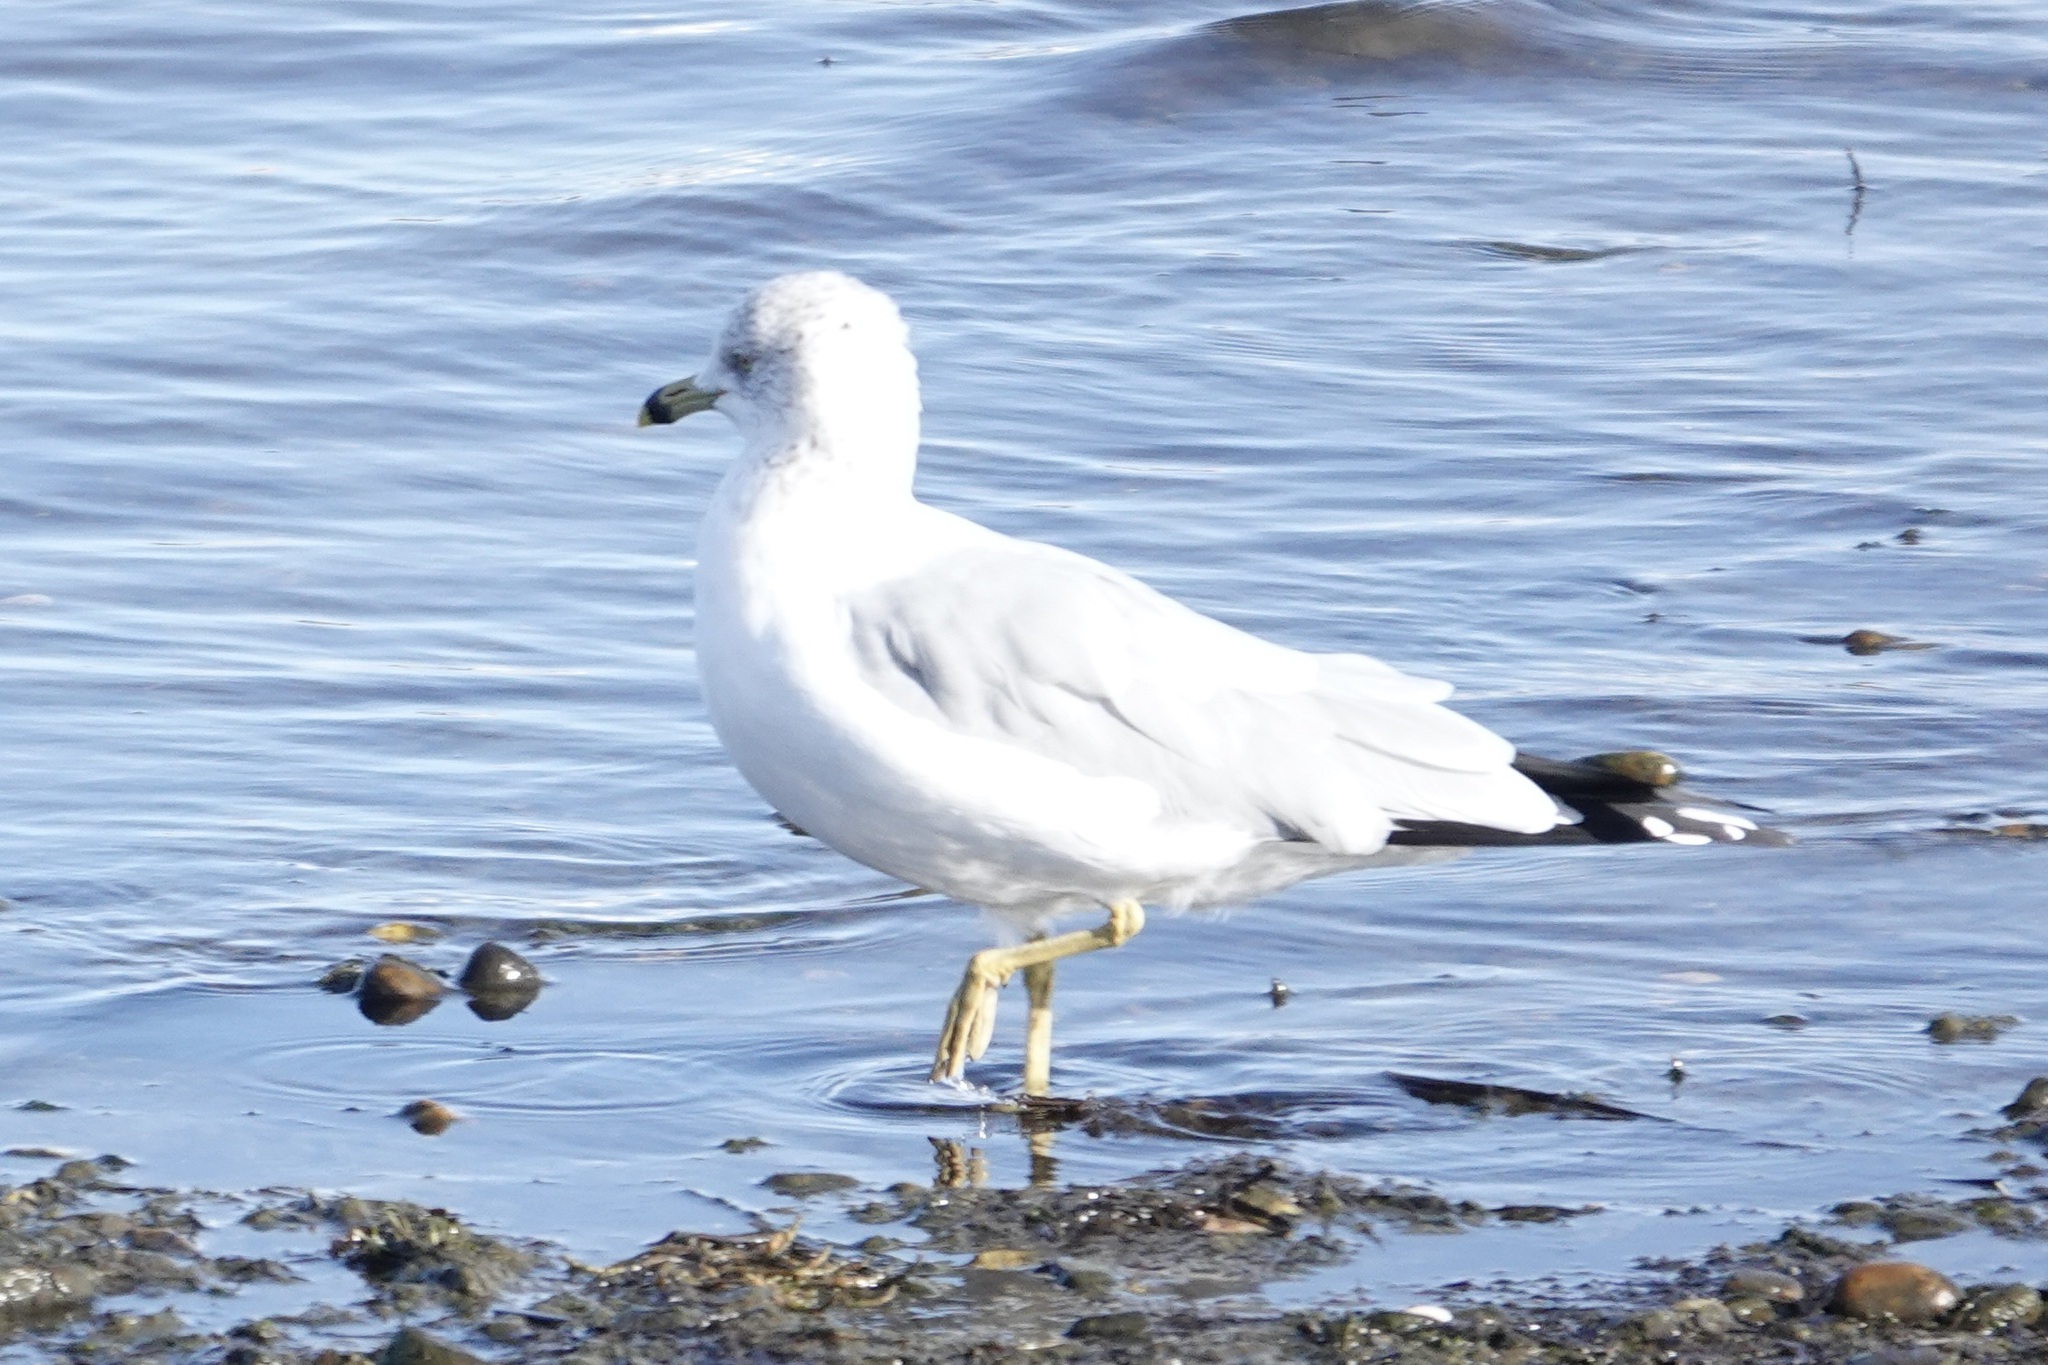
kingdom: Animalia
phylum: Chordata
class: Aves
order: Charadriiformes
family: Laridae
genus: Larus
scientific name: Larus delawarensis
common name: Ring-billed gull
